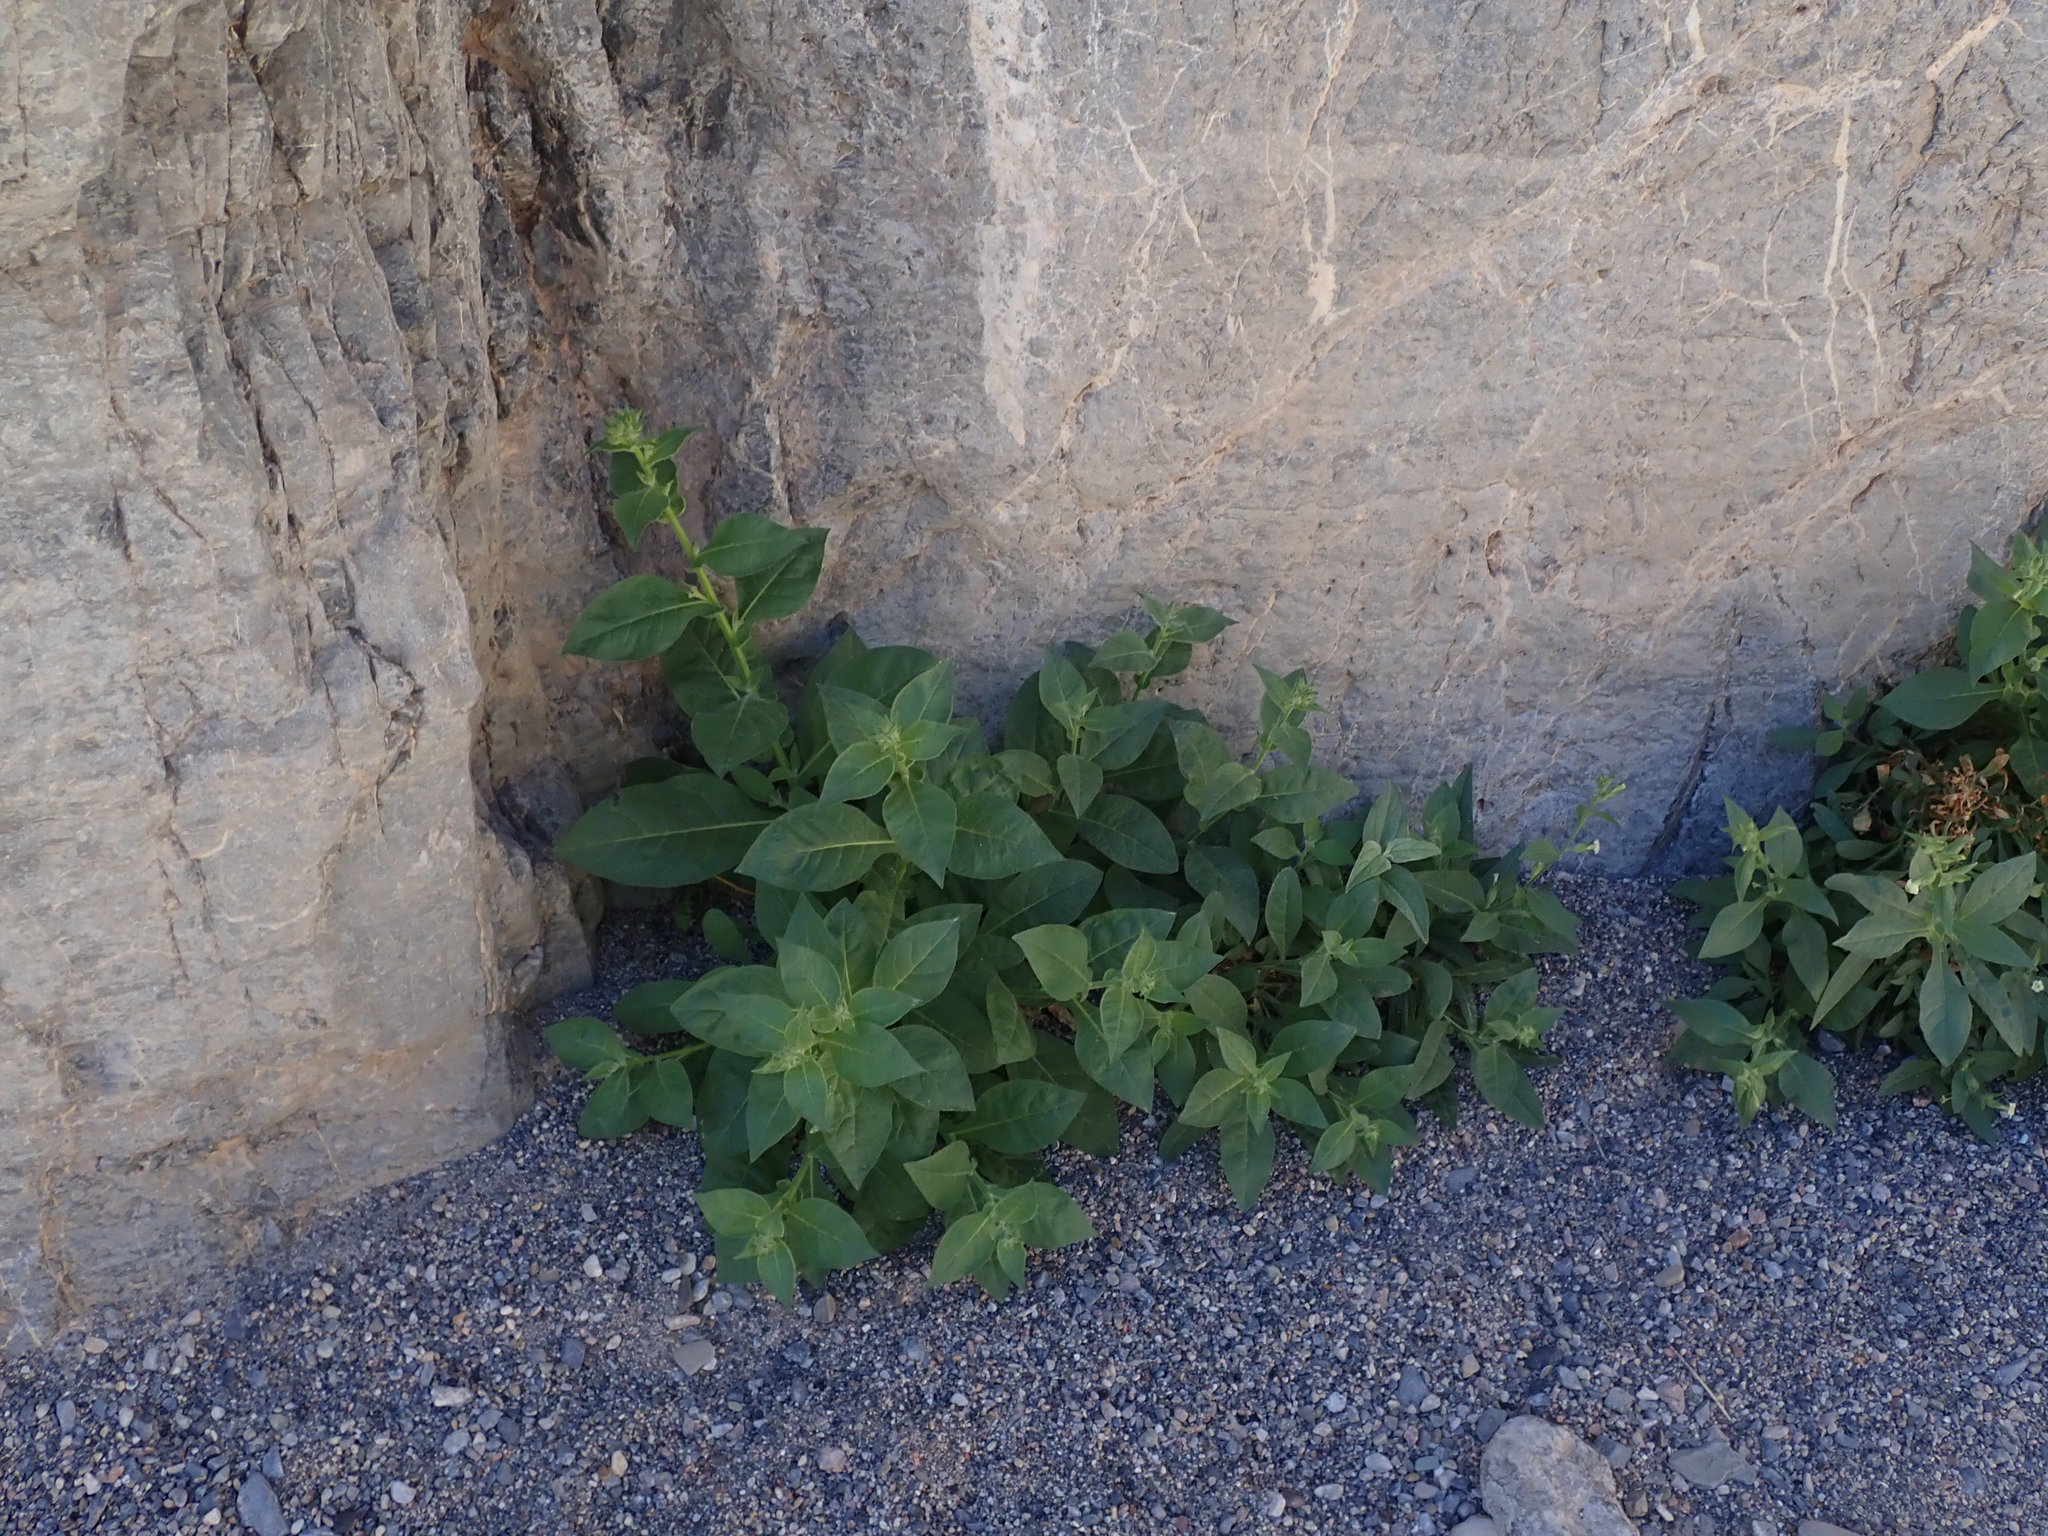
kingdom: Plantae
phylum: Tracheophyta
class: Magnoliopsida
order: Solanales
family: Solanaceae
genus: Nicotiana
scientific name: Nicotiana obtusifolia
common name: Desert tobacco
